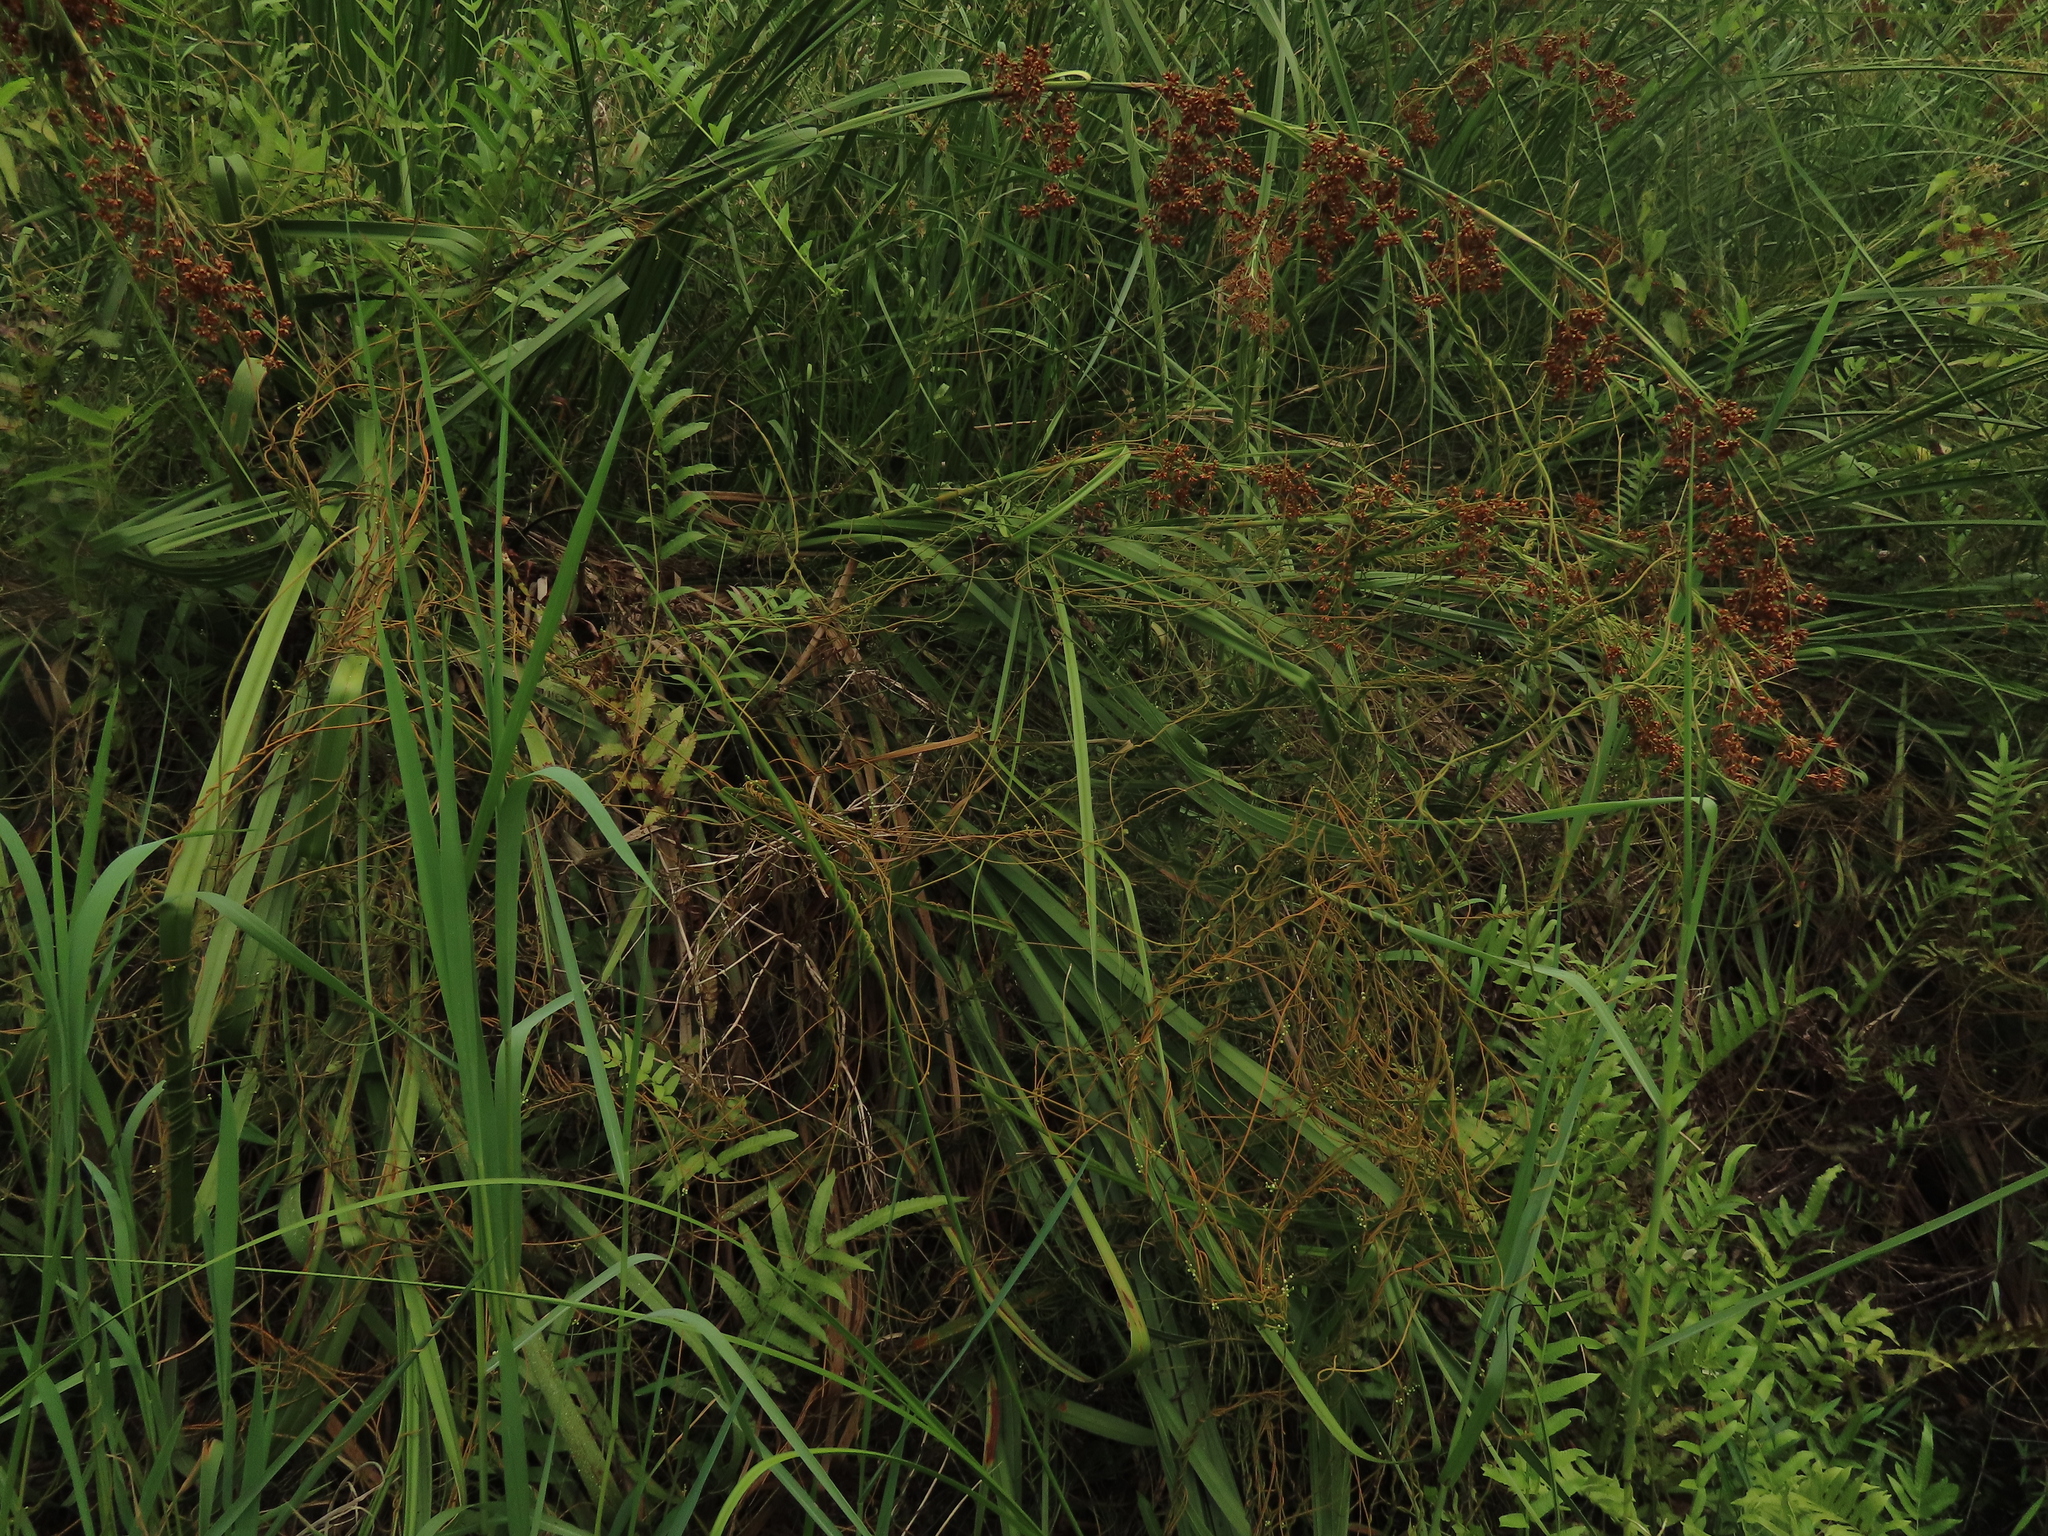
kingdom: Plantae
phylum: Tracheophyta
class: Magnoliopsida
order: Laurales
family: Lauraceae
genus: Cassytha
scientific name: Cassytha filiformis
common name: Dodder-laurel
